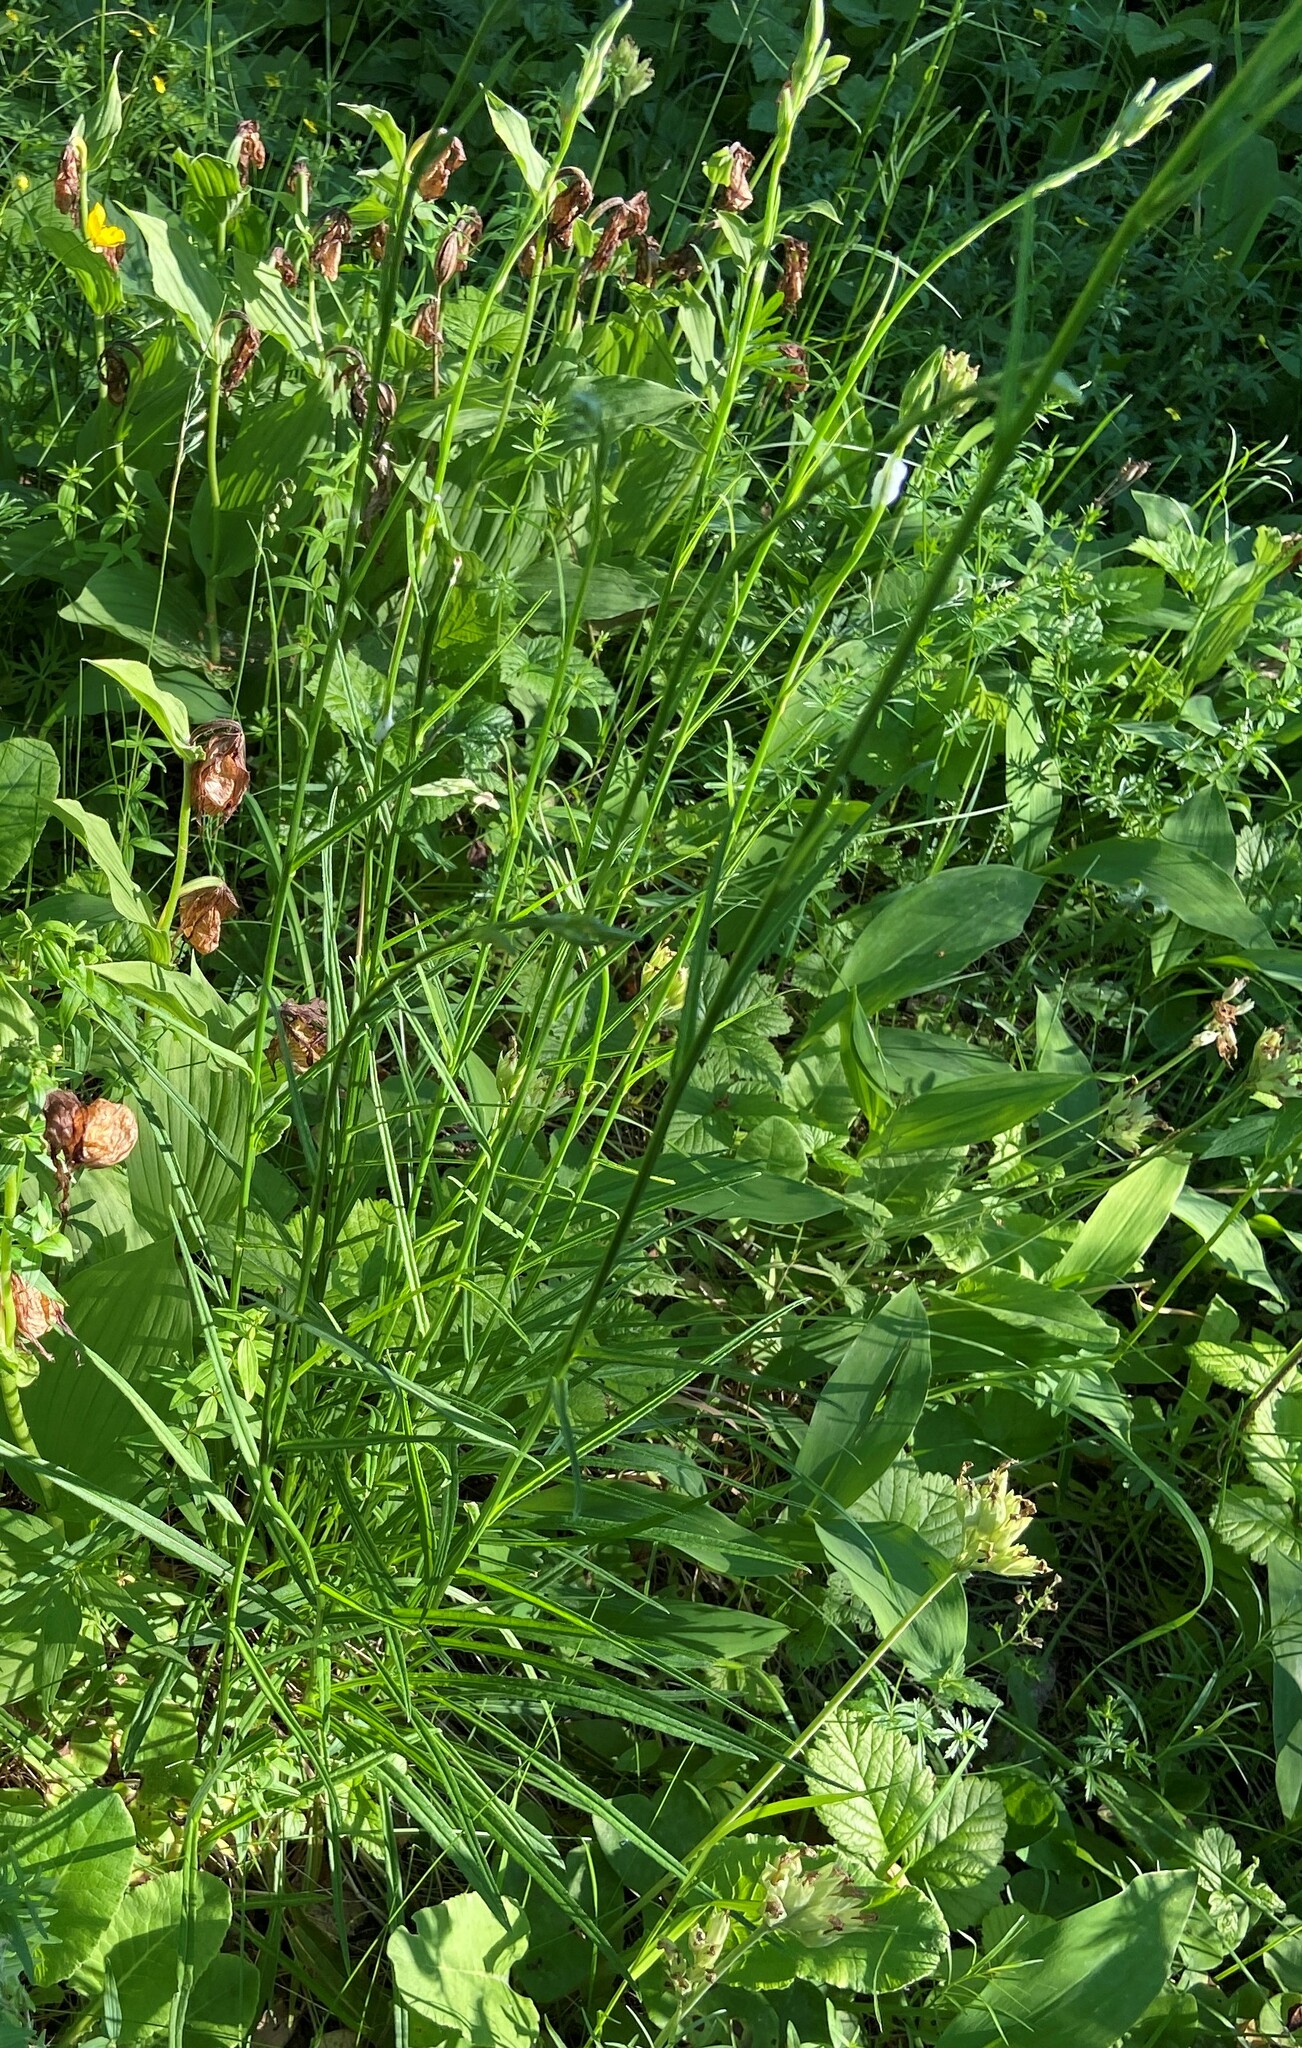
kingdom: Plantae
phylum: Tracheophyta
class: Magnoliopsida
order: Asterales
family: Campanulaceae
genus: Campanula
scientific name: Campanula persicifolia
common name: Peach-leaved bellflower
